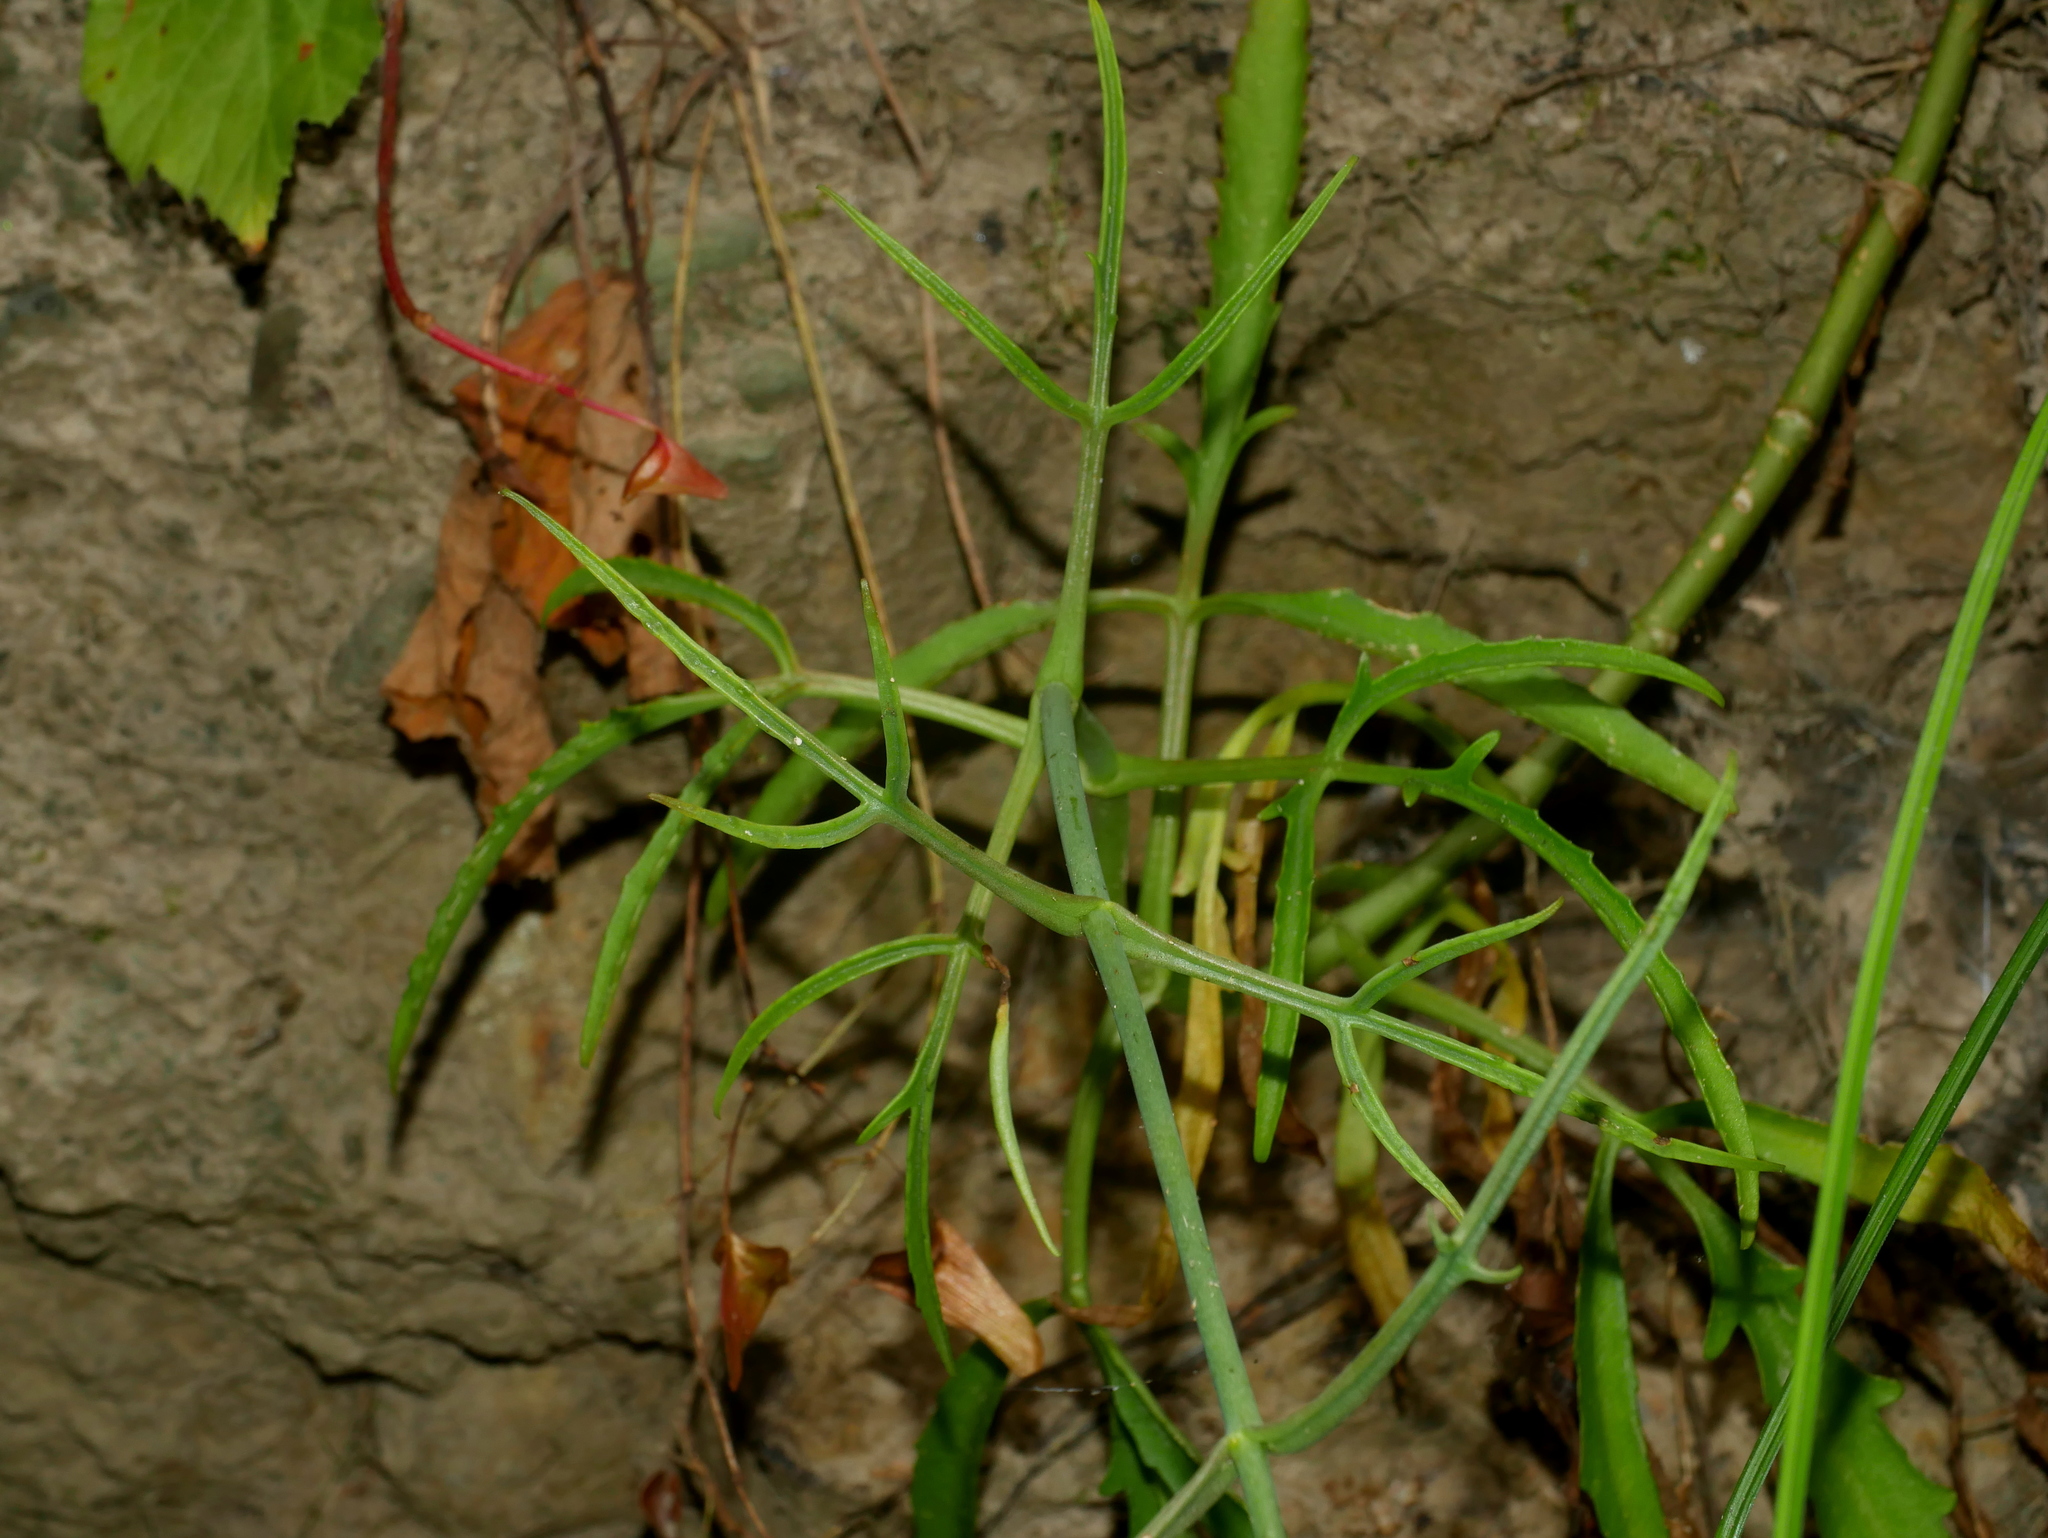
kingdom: Plantae
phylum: Tracheophyta
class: Magnoliopsida
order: Saxifragales
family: Crassulaceae
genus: Kalanchoe
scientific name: Kalanchoe ceratophylla
